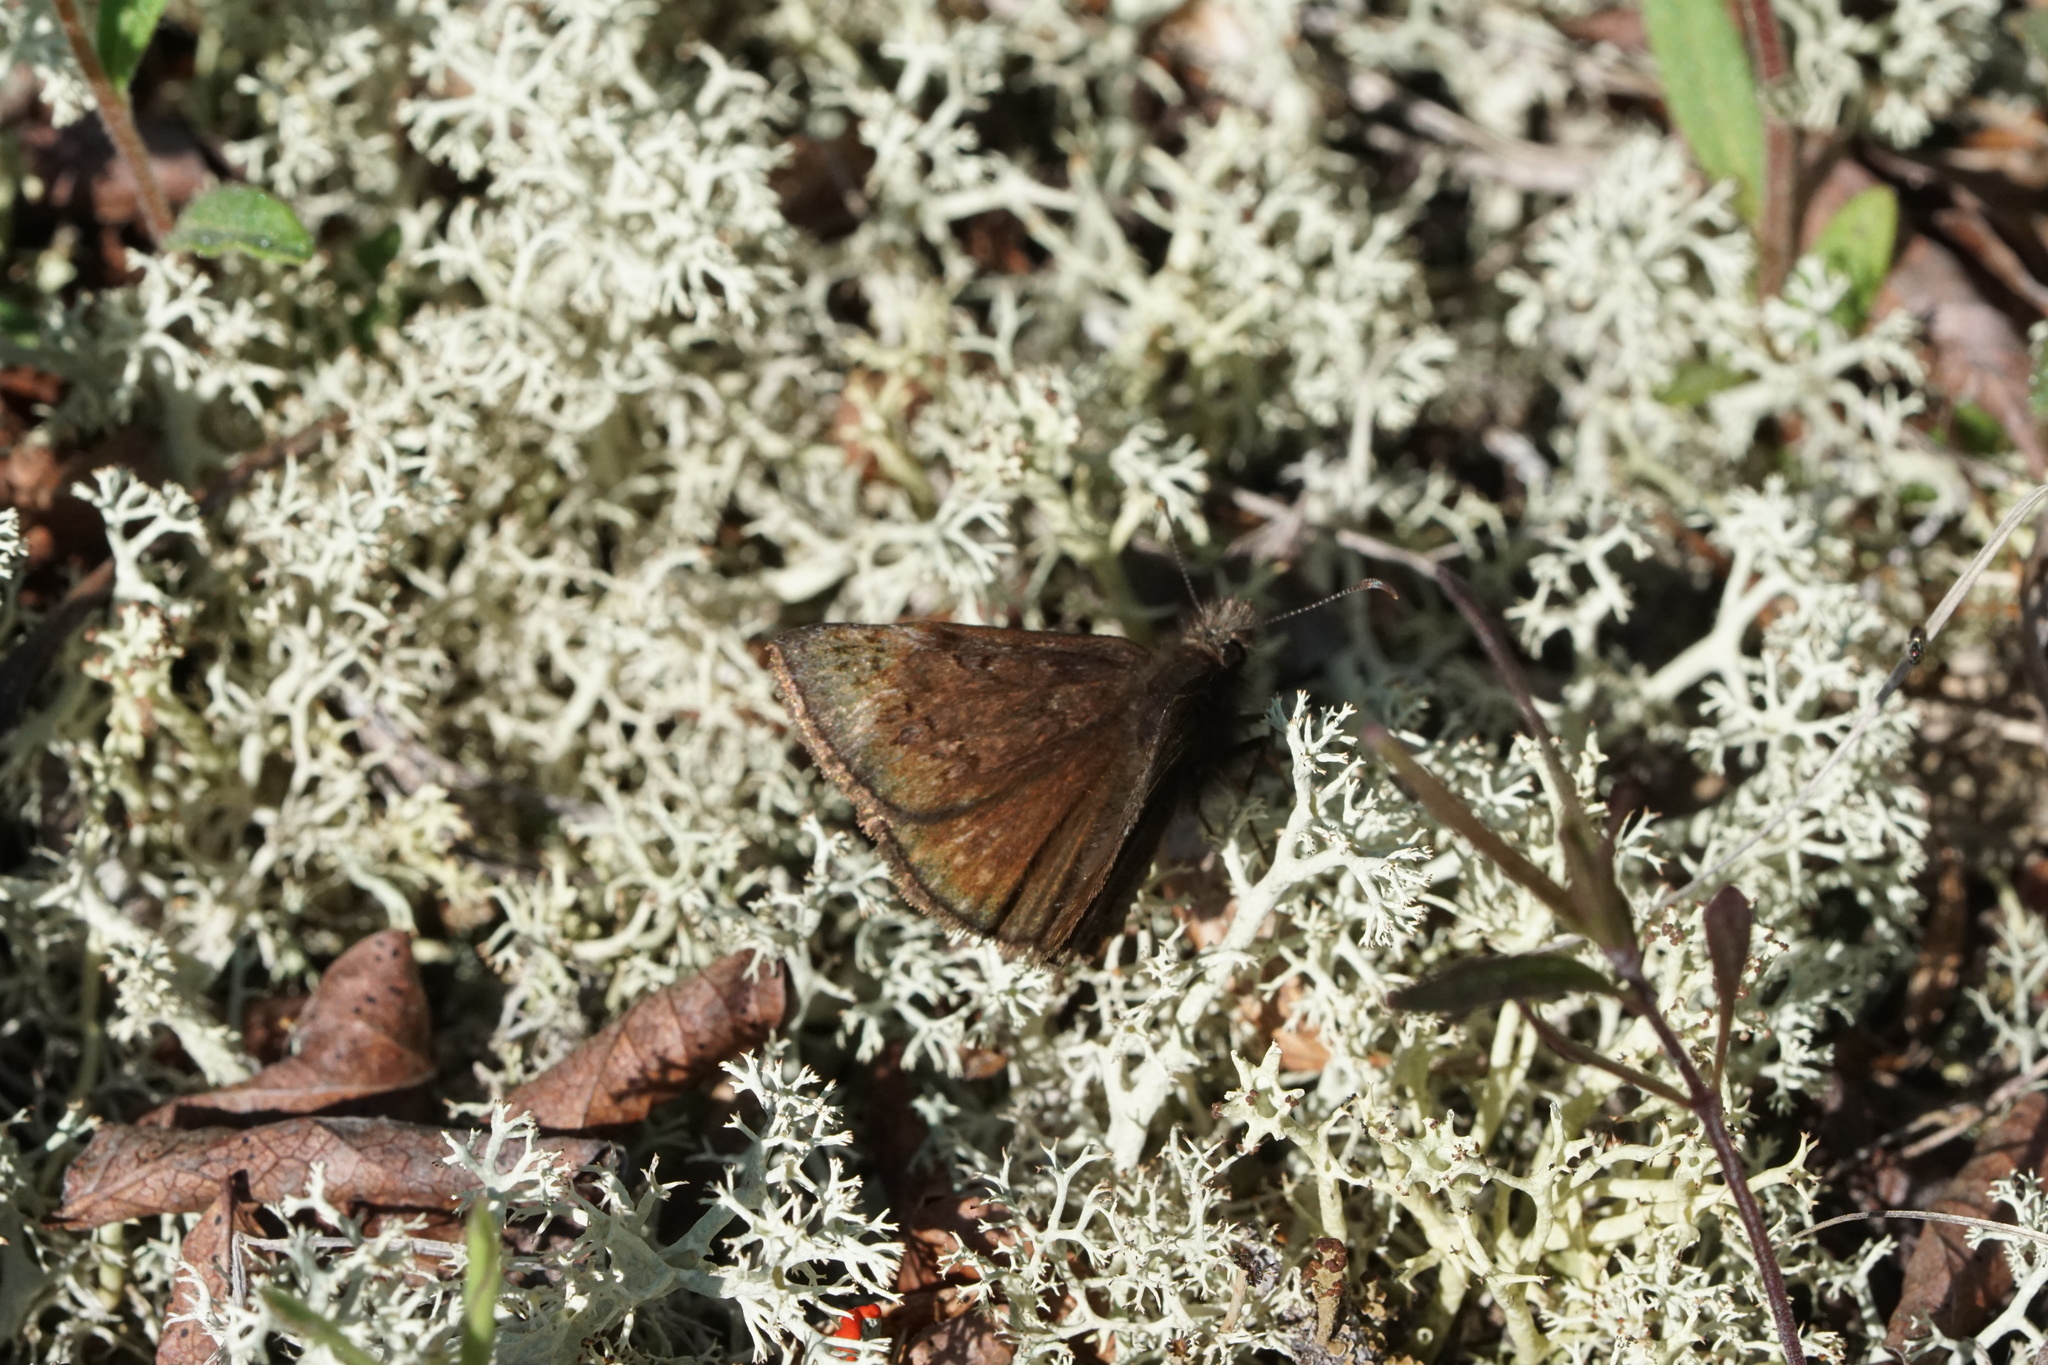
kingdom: Animalia
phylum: Arthropoda
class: Insecta
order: Lepidoptera
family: Hesperiidae
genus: Erynnis
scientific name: Erynnis brizo
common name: Sleepy duskywing
